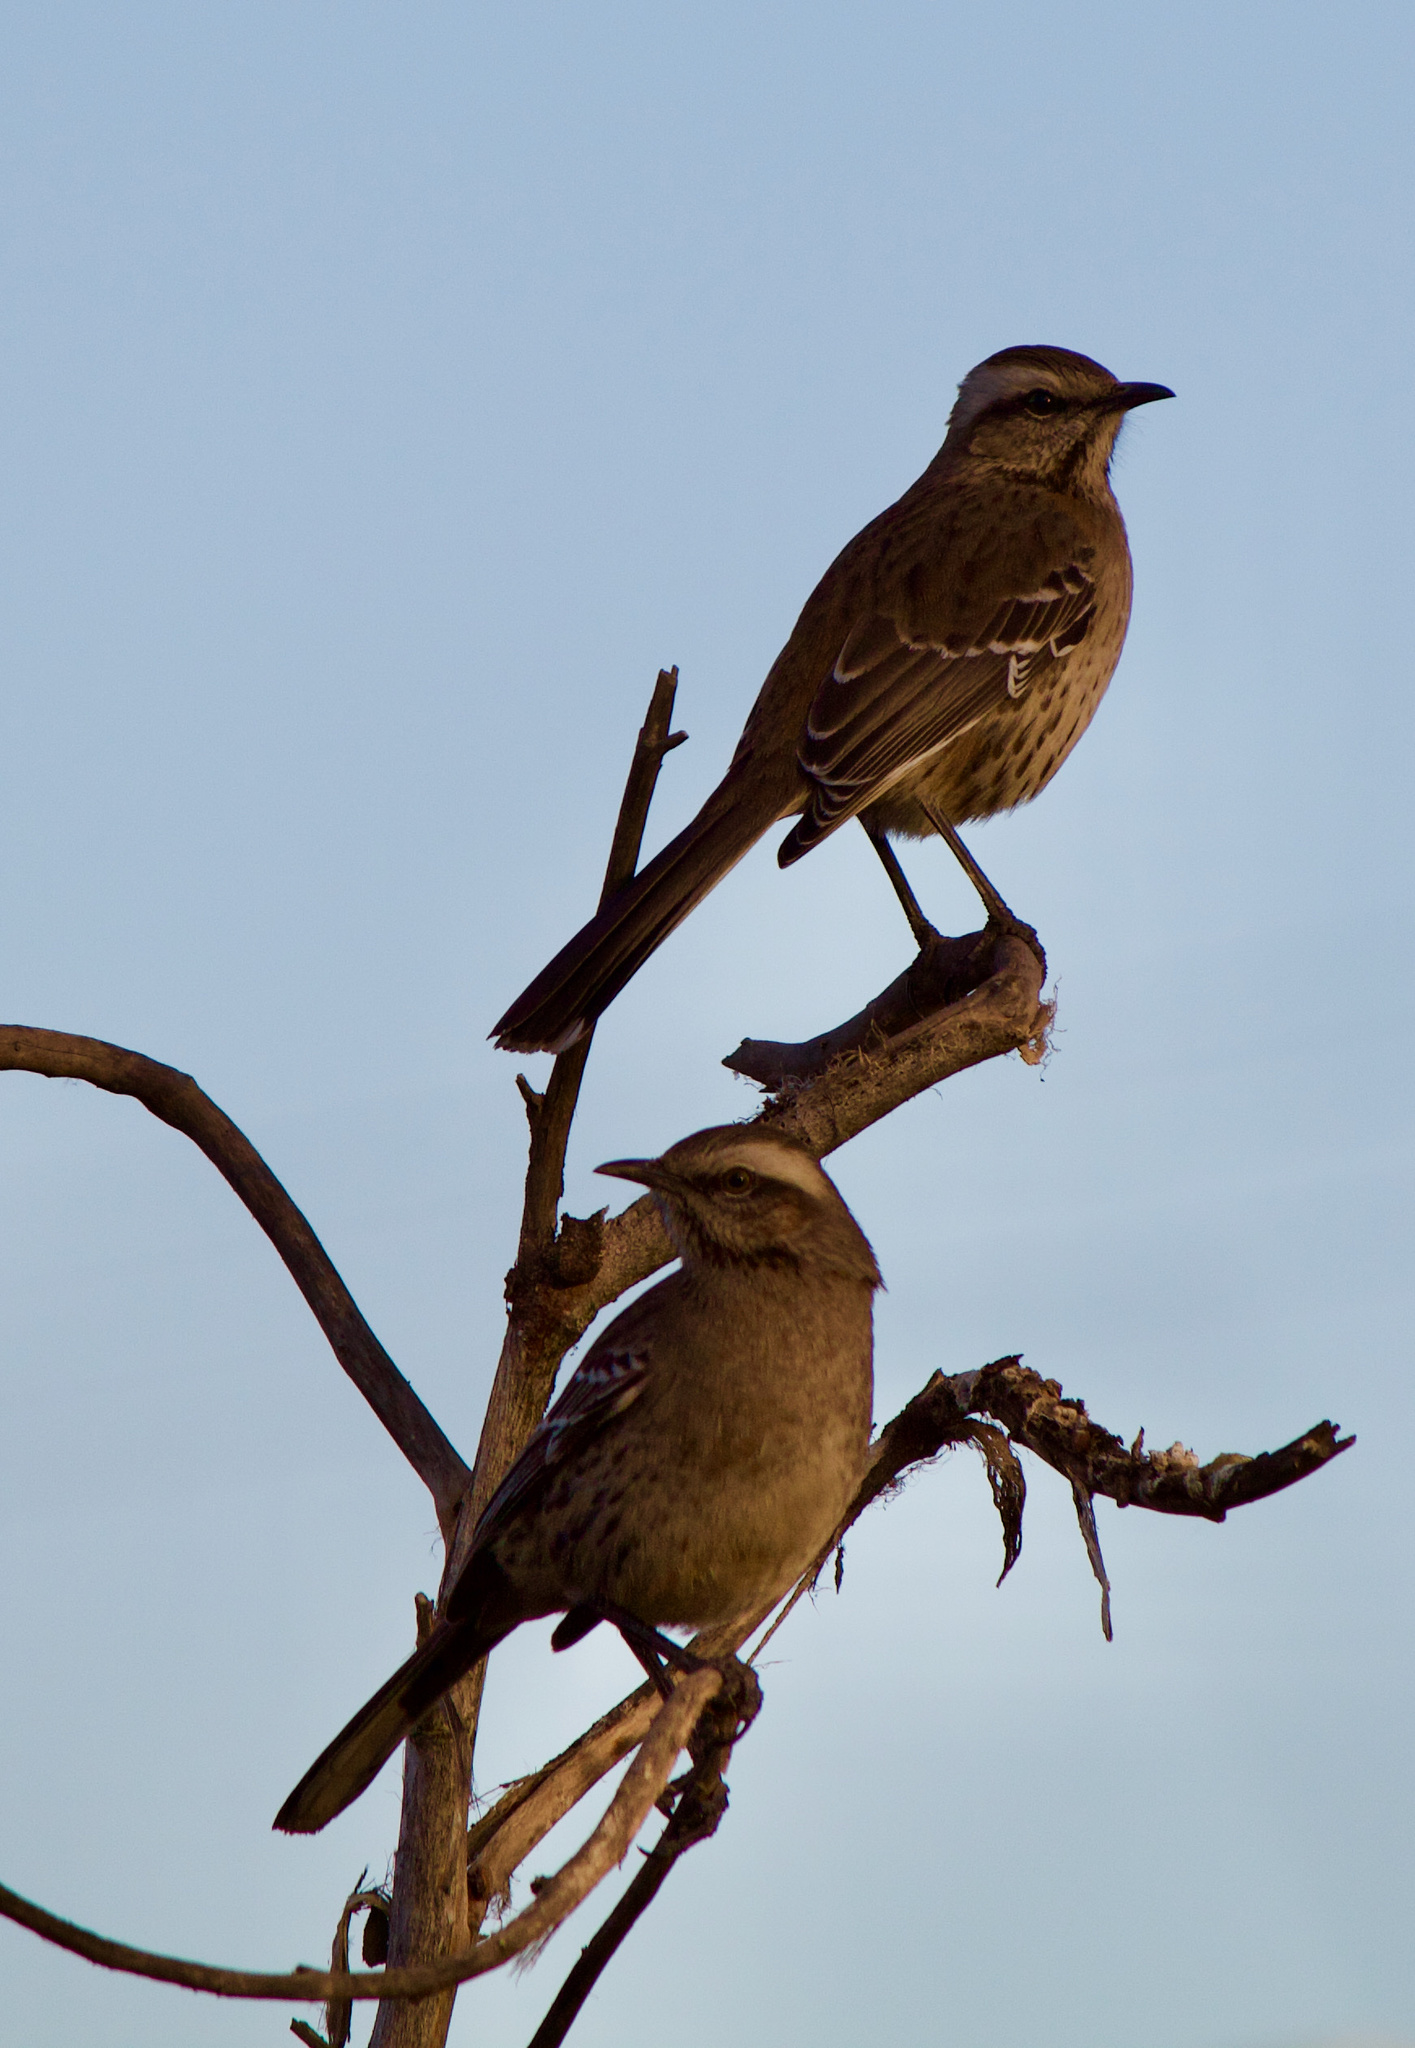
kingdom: Animalia
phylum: Chordata
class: Aves
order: Passeriformes
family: Mimidae
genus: Mimus
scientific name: Mimus thenca
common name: Chilean mockingbird
